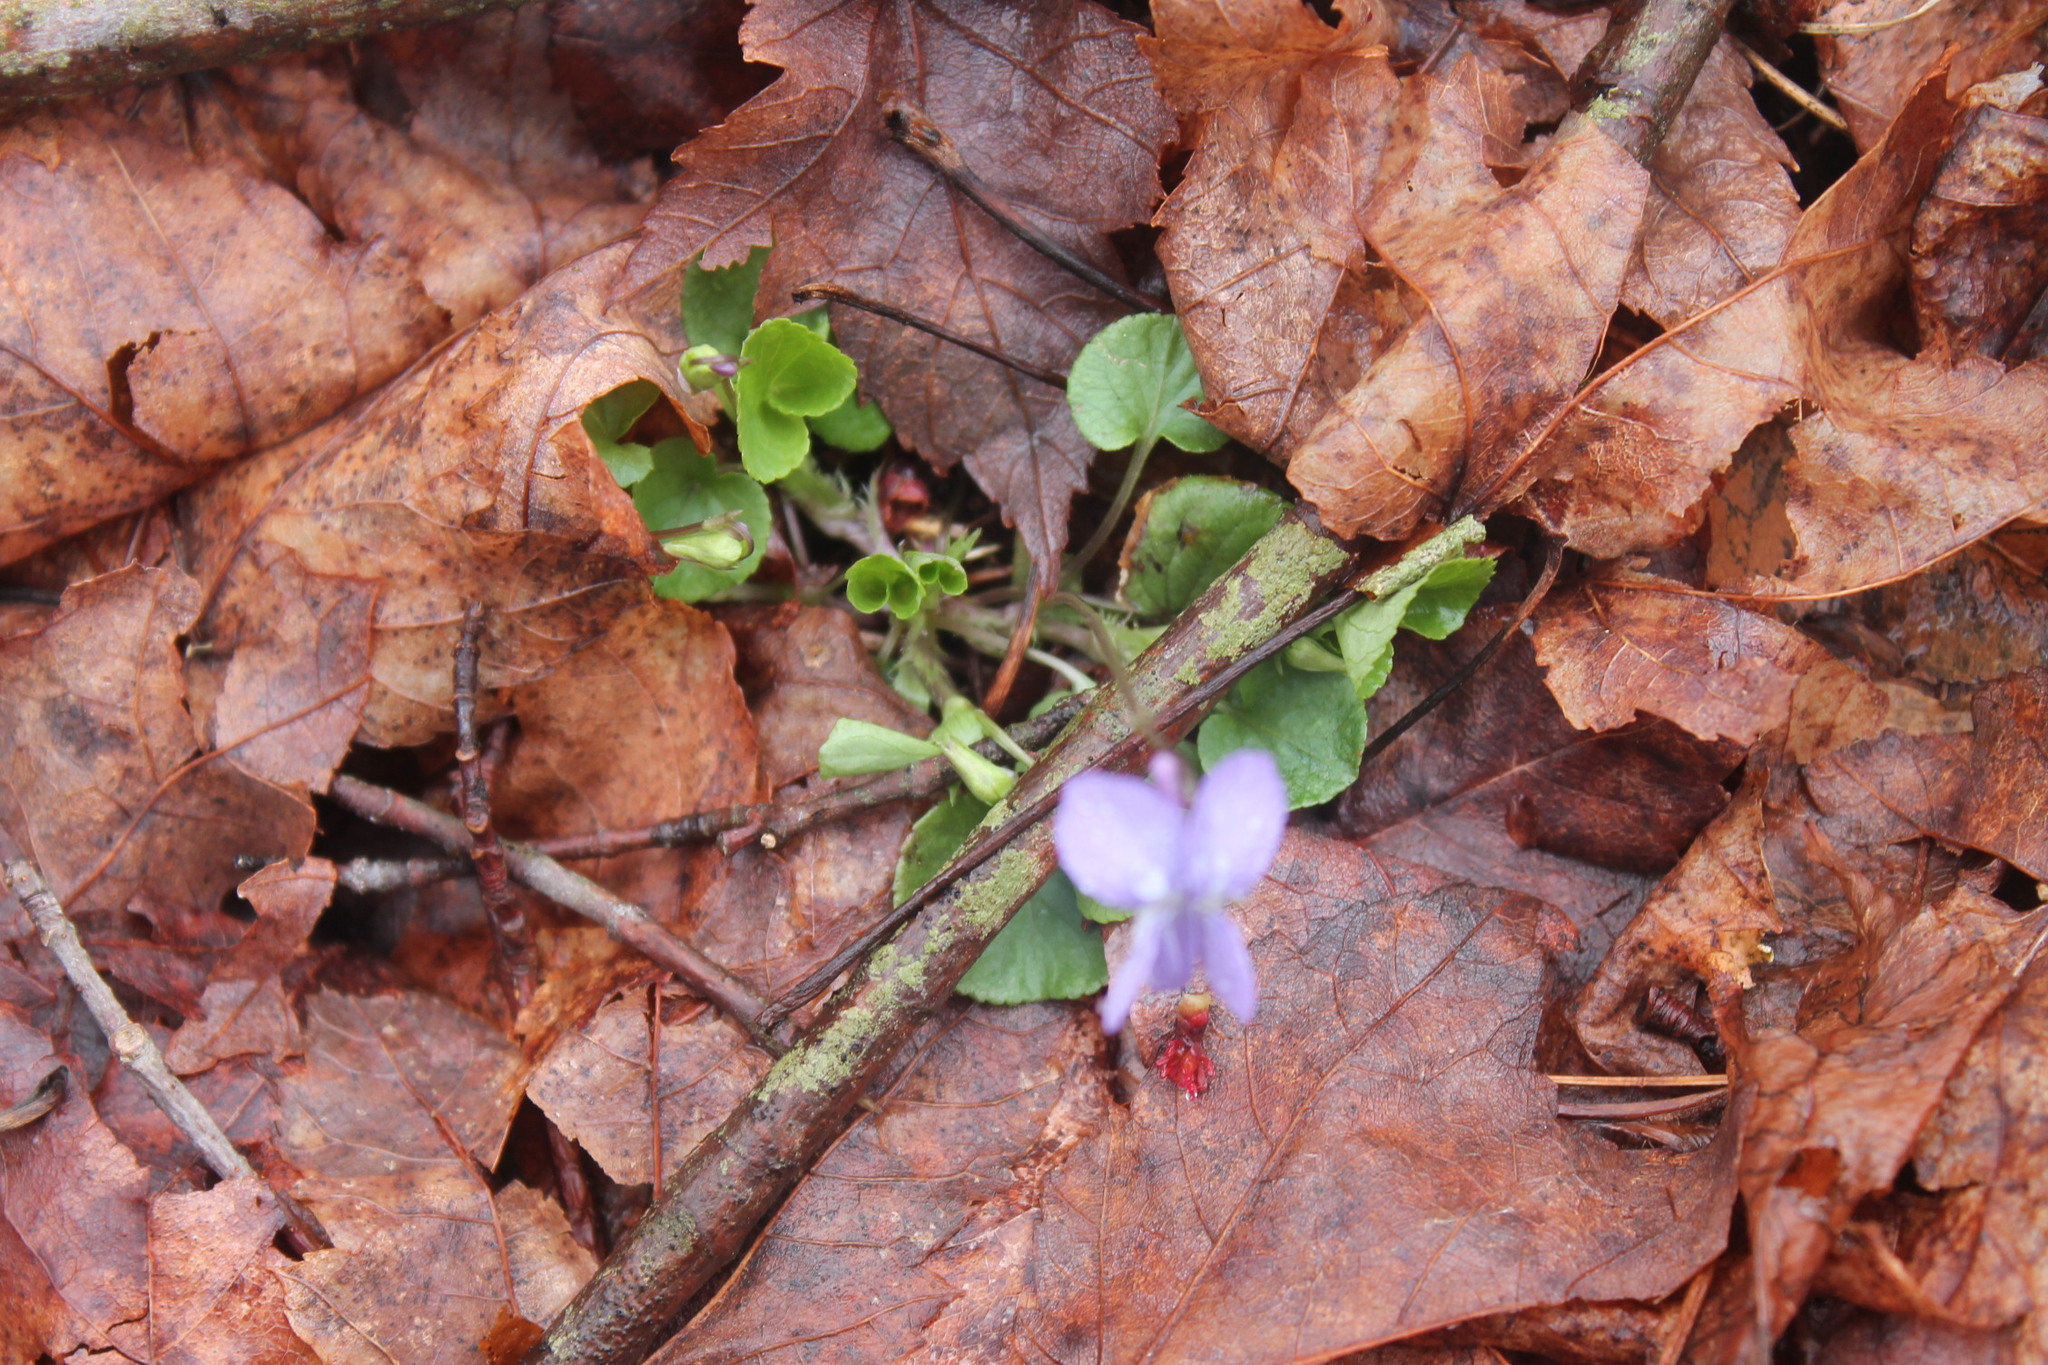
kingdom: Plantae
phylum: Tracheophyta
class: Magnoliopsida
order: Malpighiales
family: Violaceae
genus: Viola
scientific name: Viola labradorica
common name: Labrador violet
